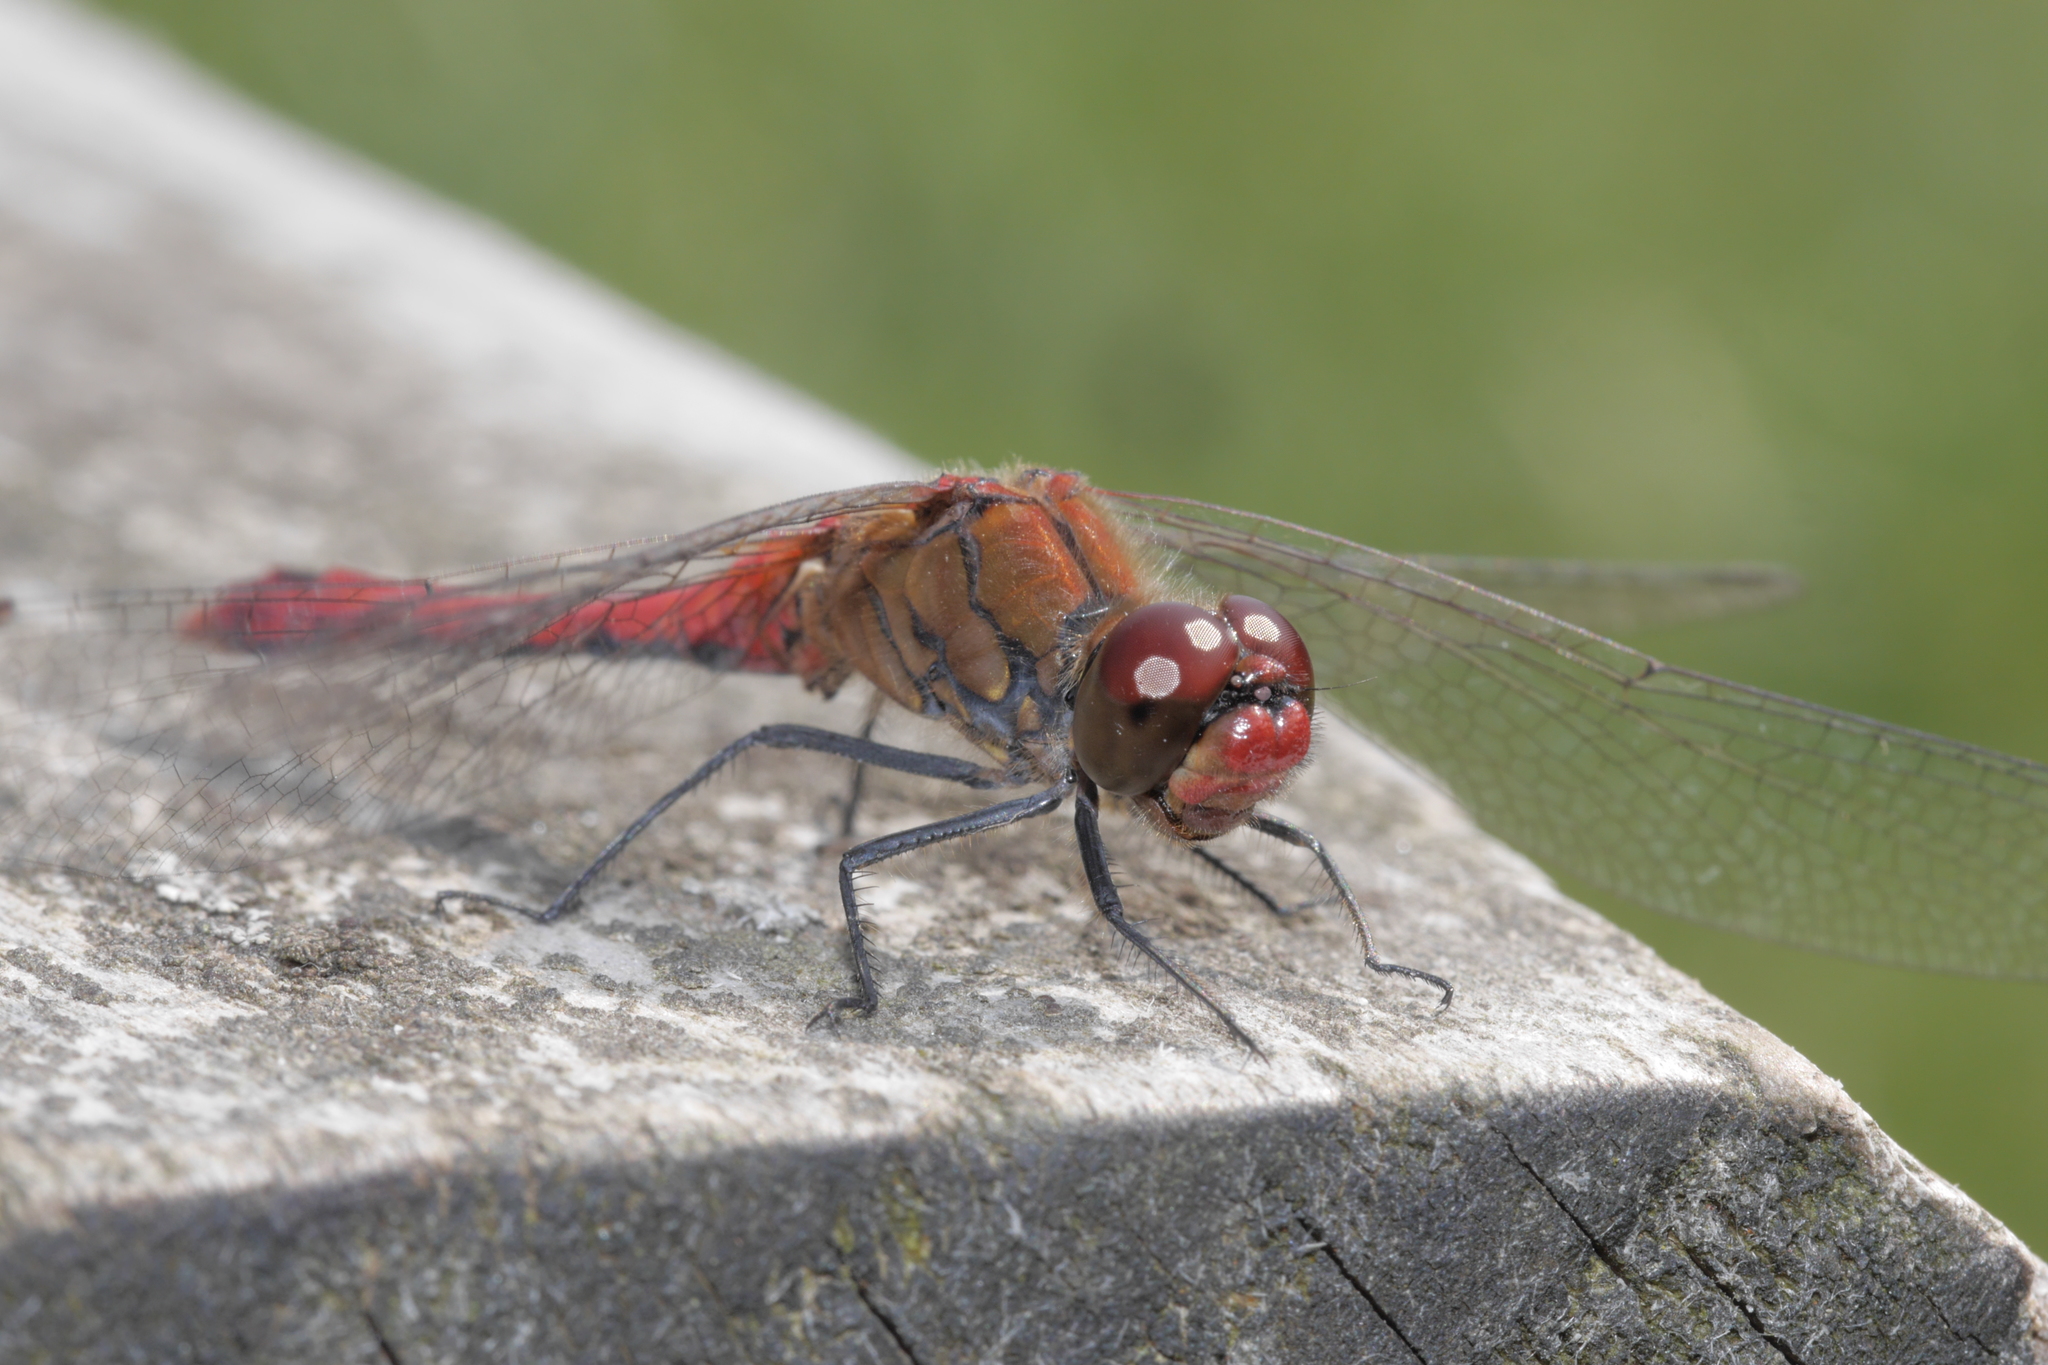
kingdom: Animalia
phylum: Arthropoda
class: Insecta
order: Odonata
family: Libellulidae
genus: Sympetrum
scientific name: Sympetrum sanguineum
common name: Ruddy darter
